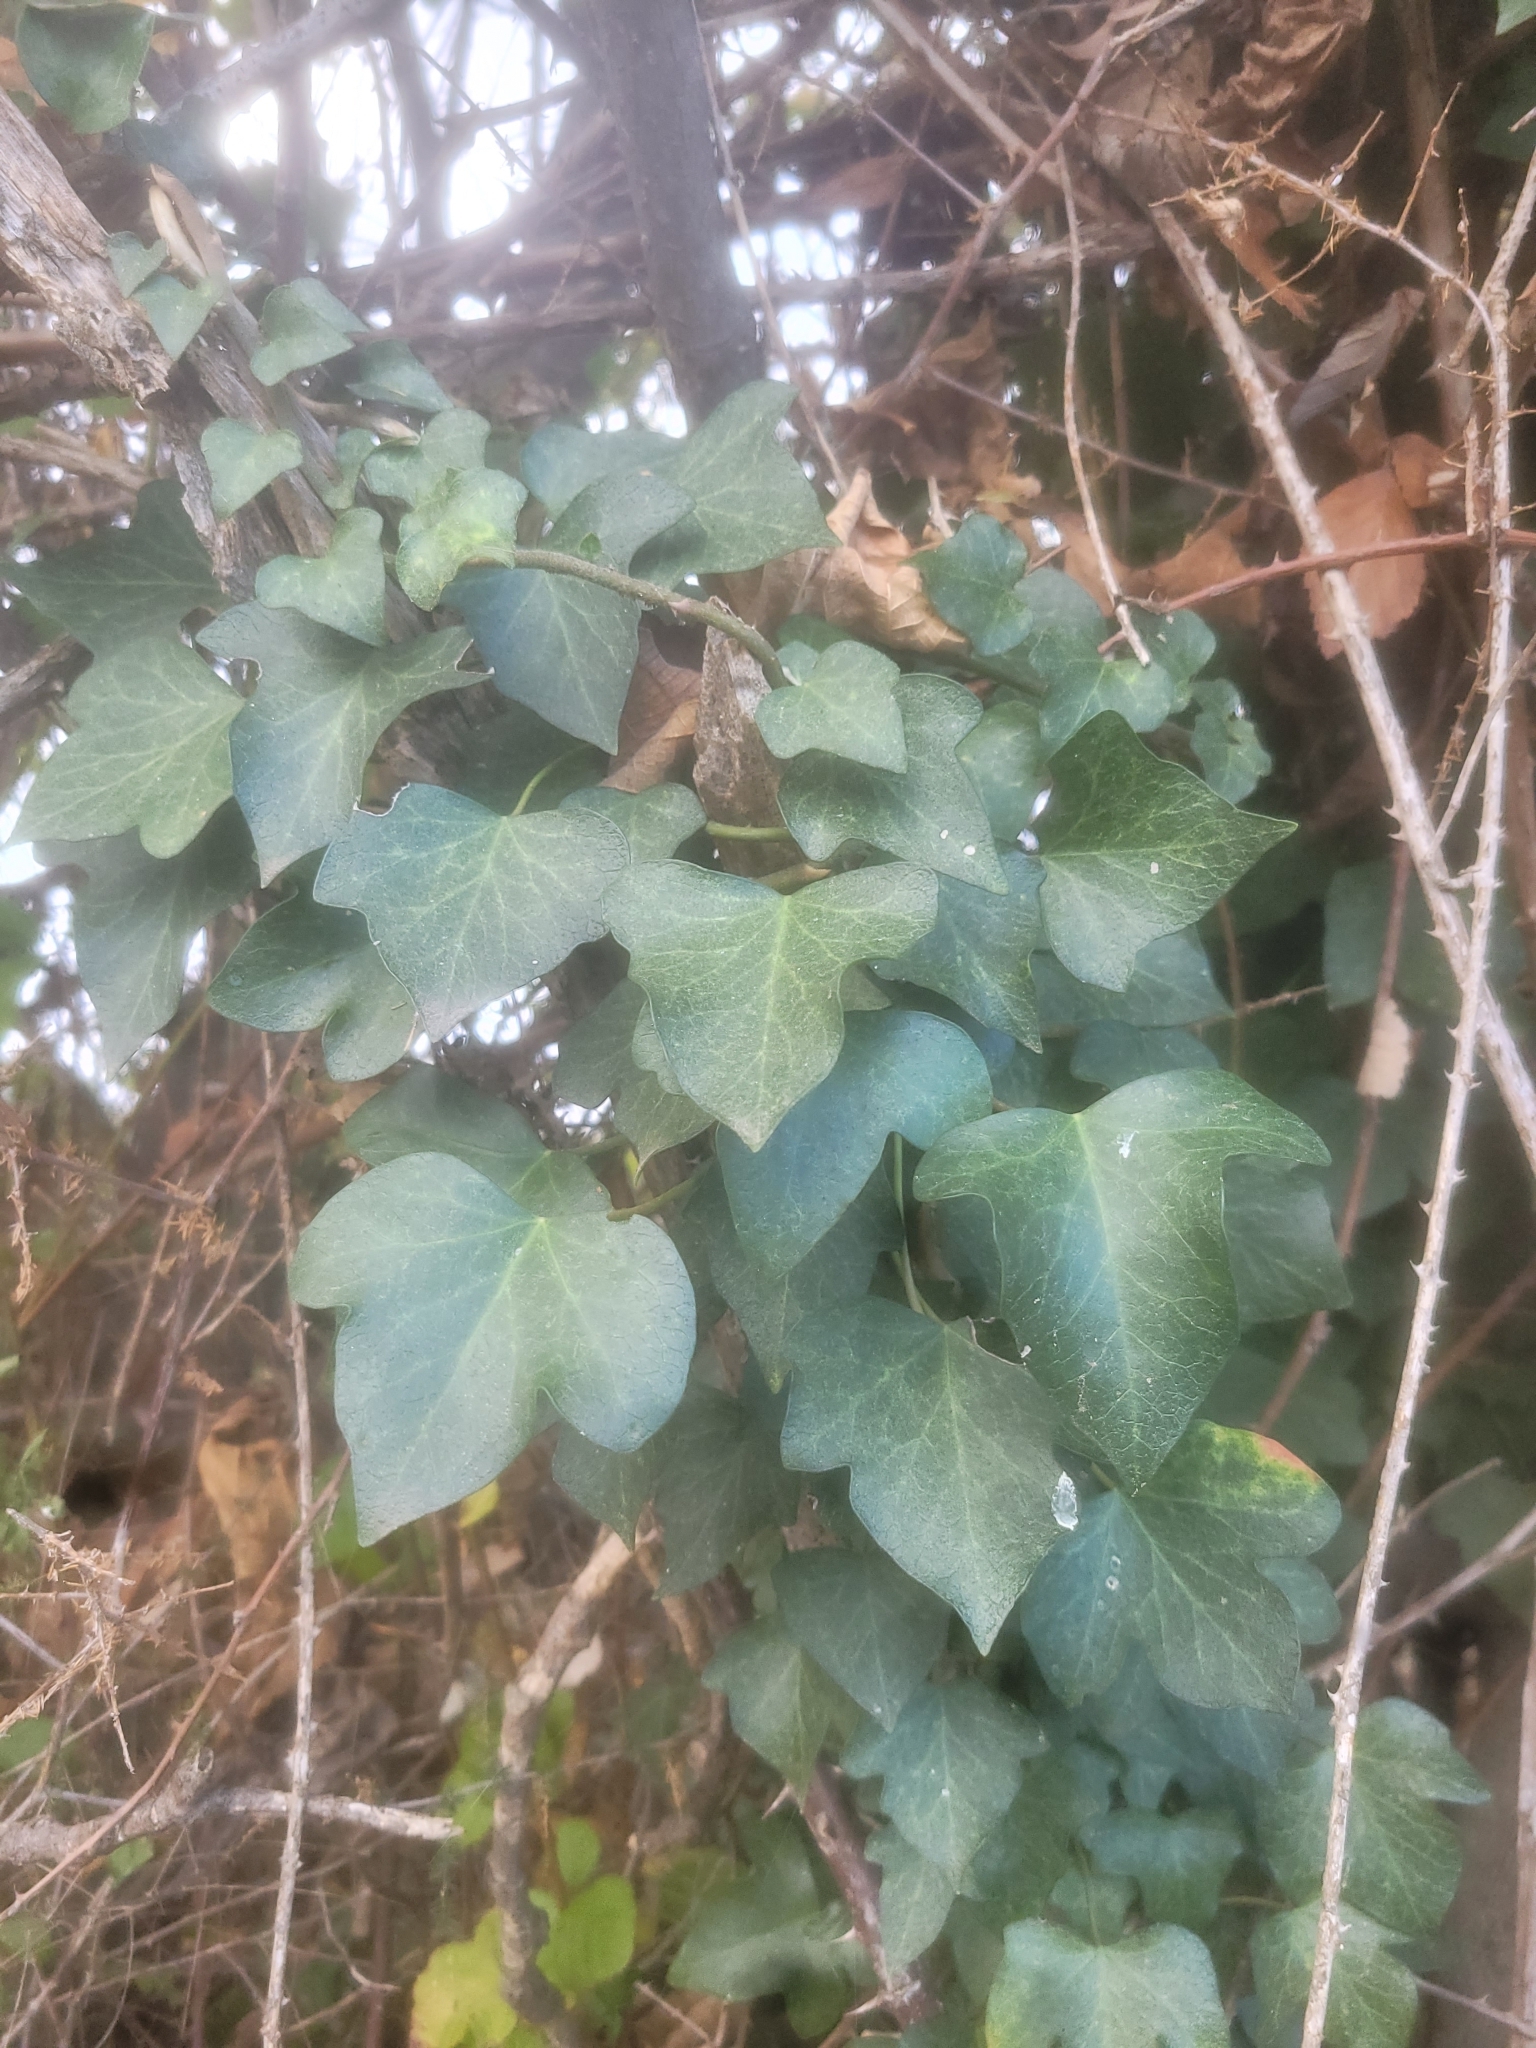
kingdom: Plantae
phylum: Tracheophyta
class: Magnoliopsida
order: Apiales
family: Araliaceae
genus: Hedera
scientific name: Hedera helix
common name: Ivy
